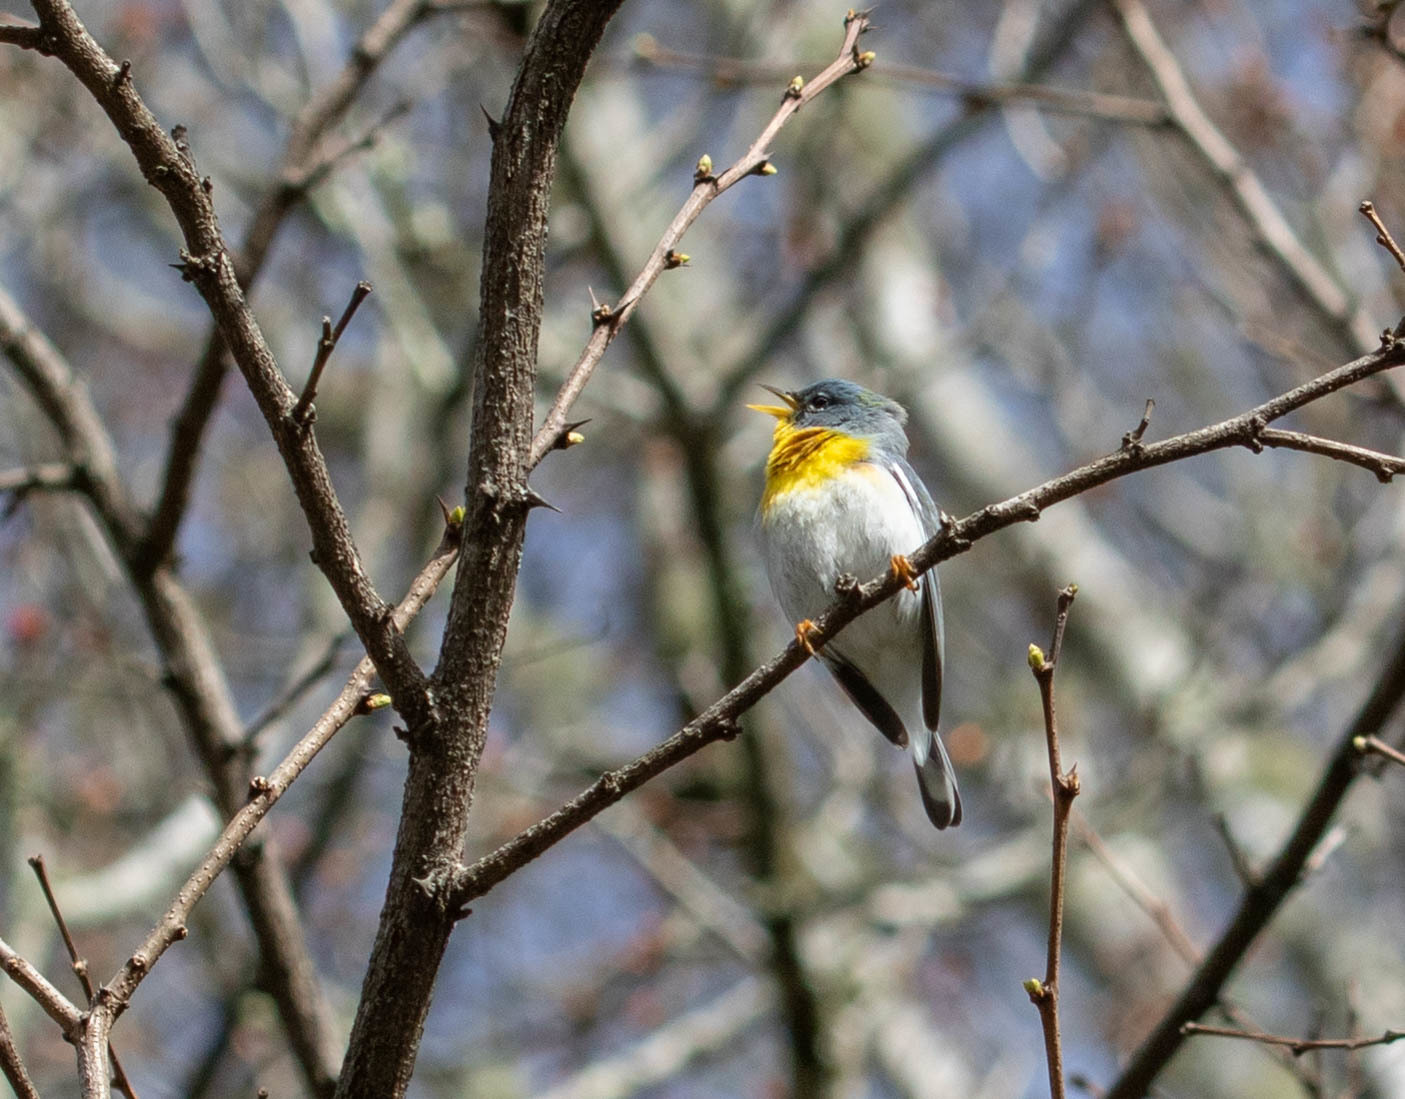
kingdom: Animalia
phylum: Chordata
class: Aves
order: Passeriformes
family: Parulidae
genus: Setophaga
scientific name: Setophaga americana
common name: Northern parula
